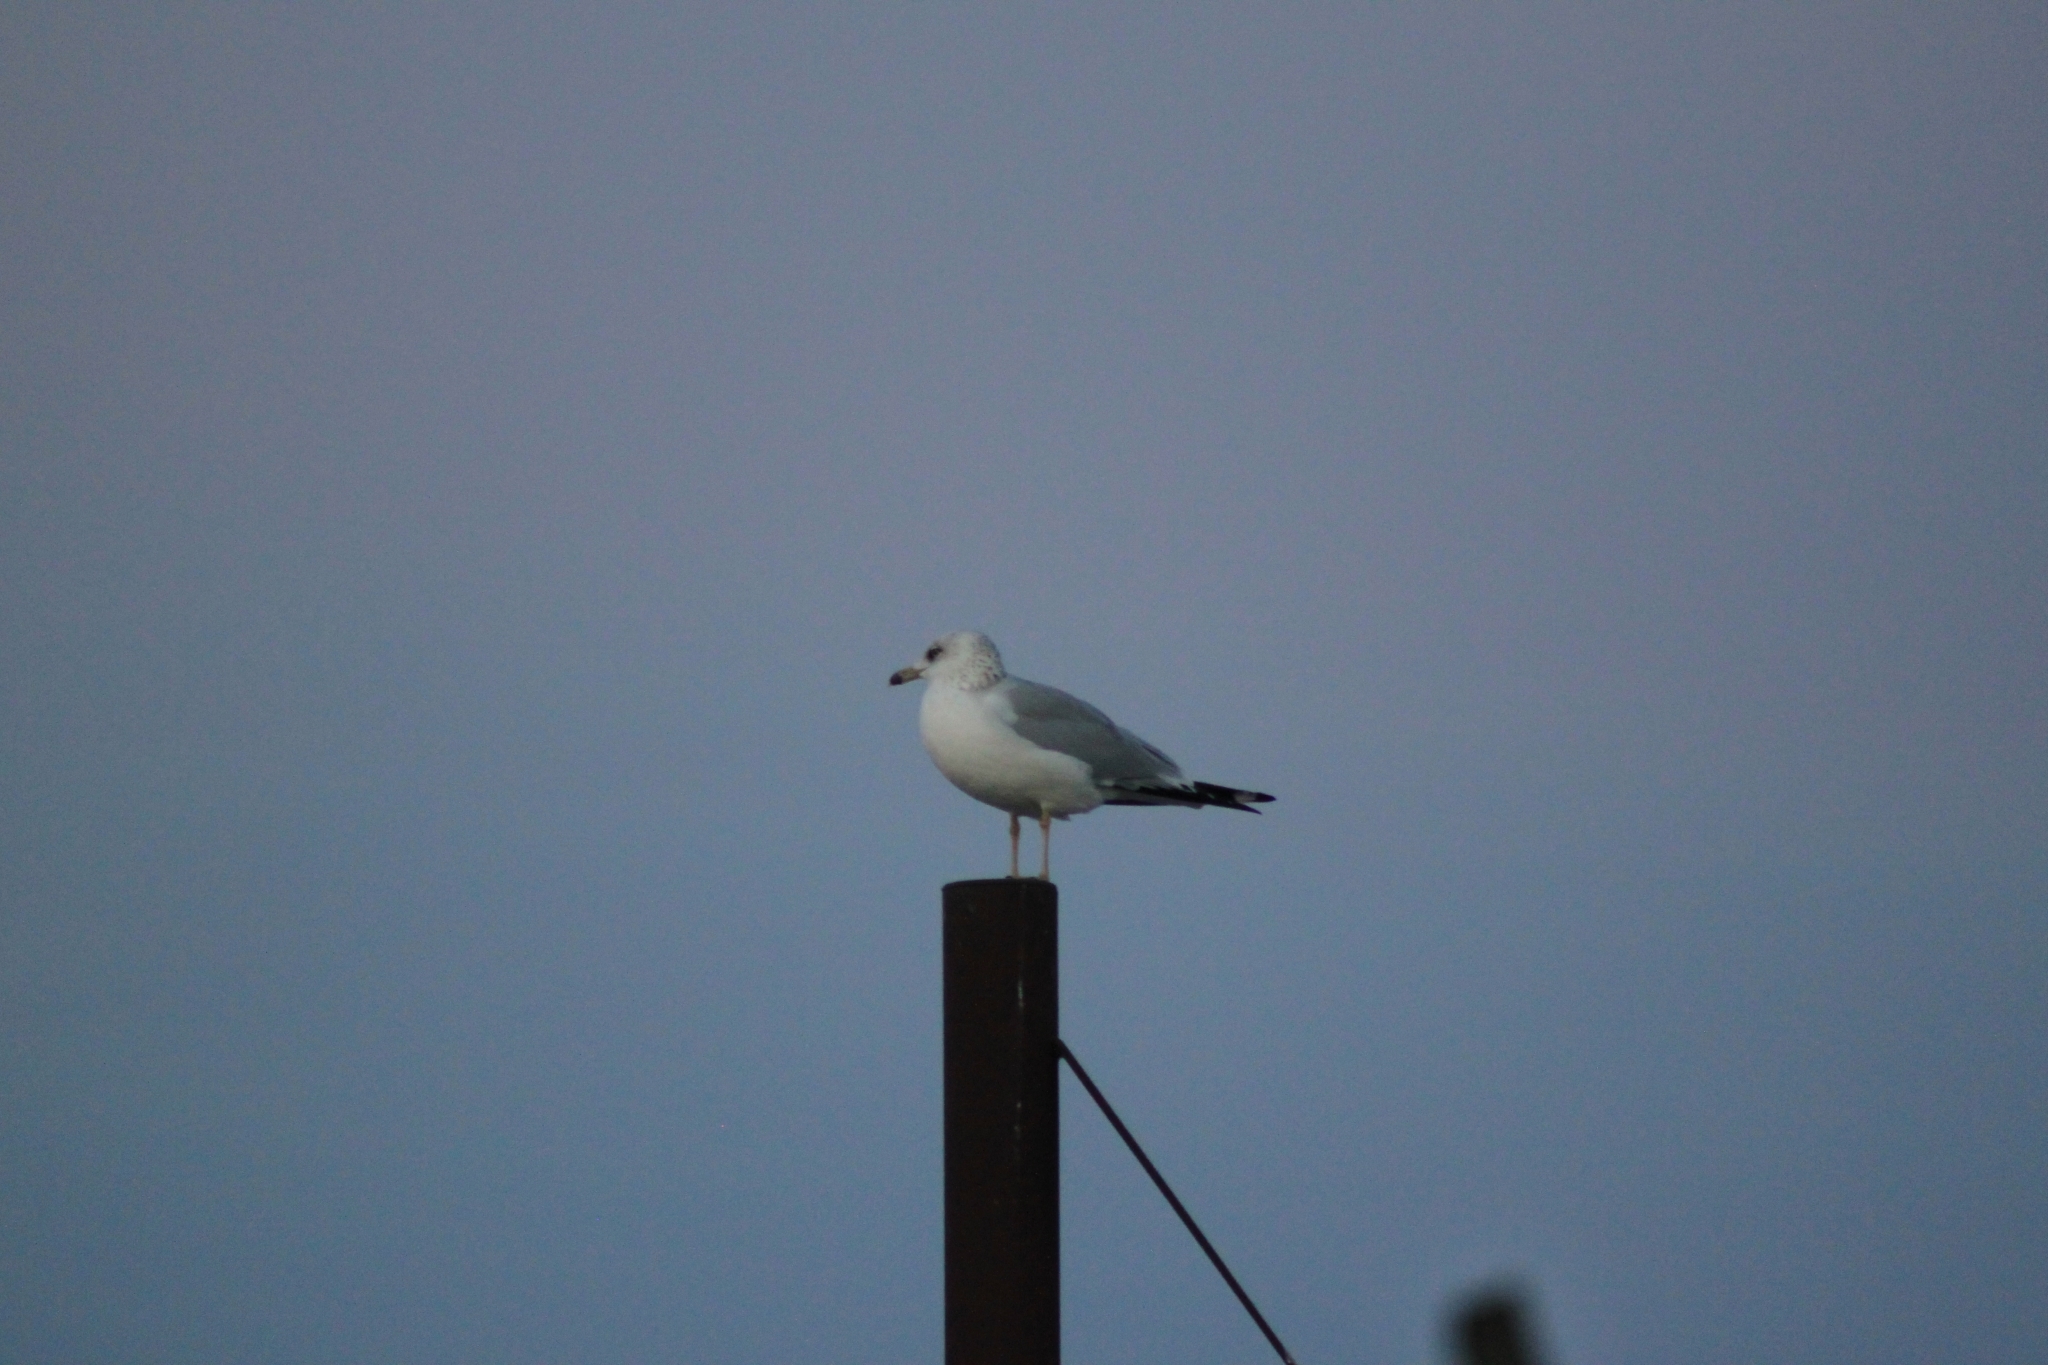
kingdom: Animalia
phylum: Chordata
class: Aves
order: Charadriiformes
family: Laridae
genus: Larus
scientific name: Larus delawarensis
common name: Ring-billed gull
